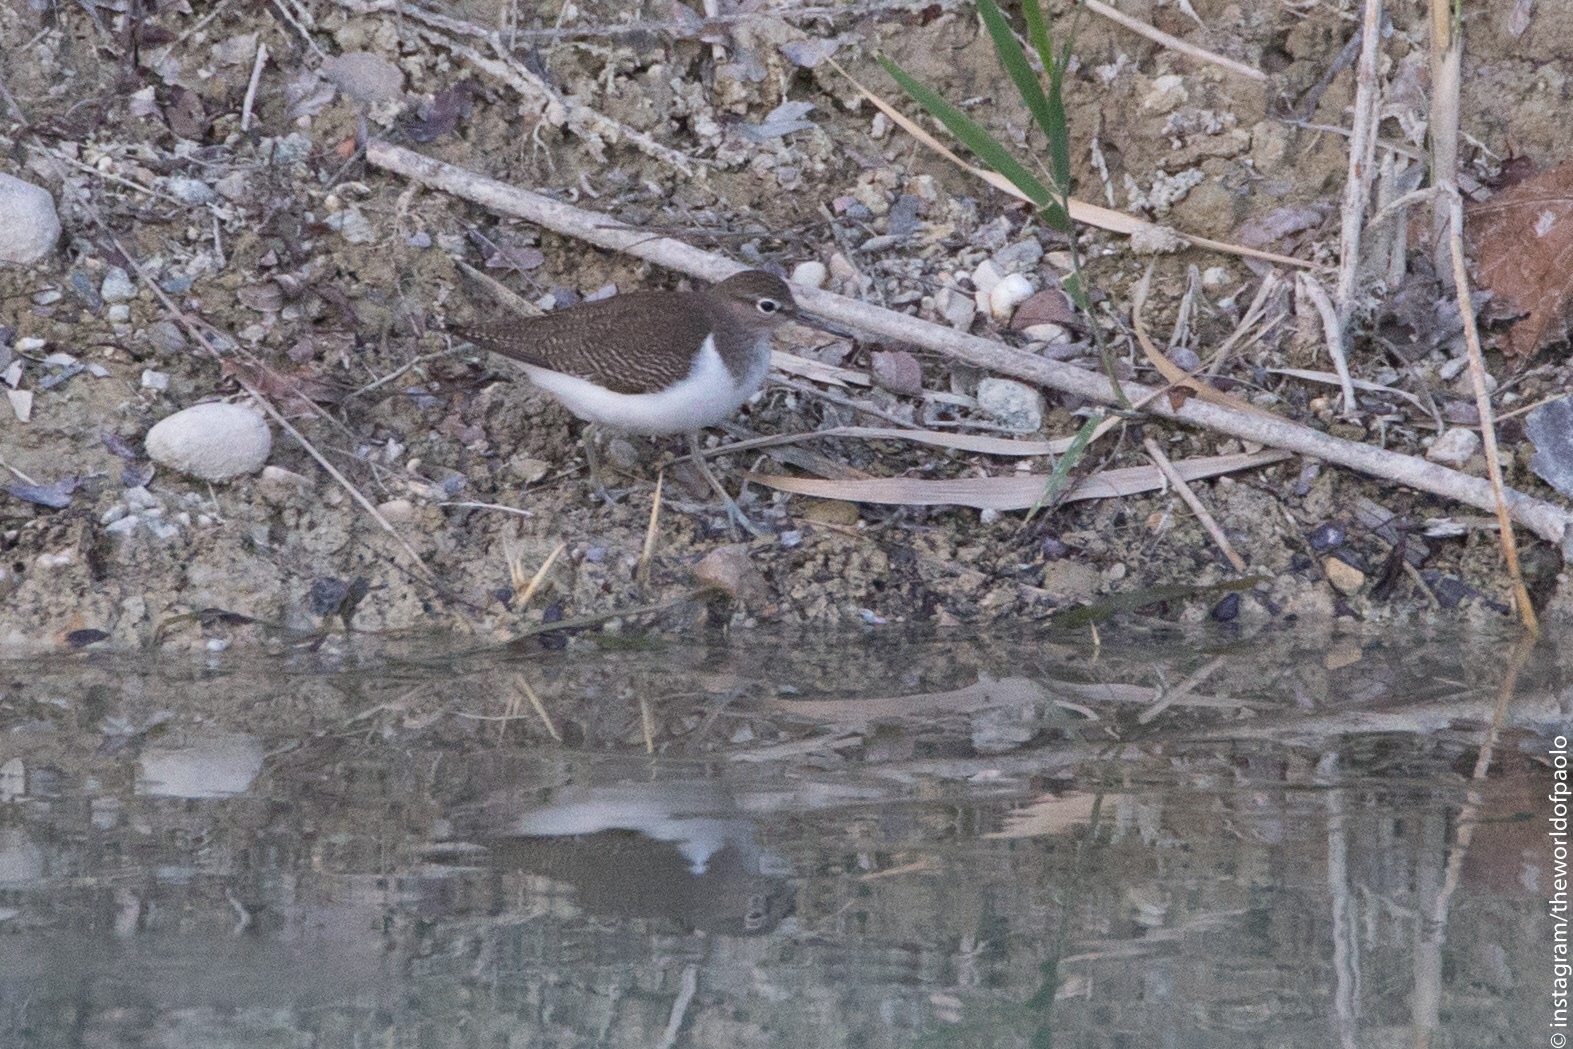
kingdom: Animalia
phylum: Chordata
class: Aves
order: Charadriiformes
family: Scolopacidae
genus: Actitis
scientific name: Actitis hypoleucos
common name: Common sandpiper
